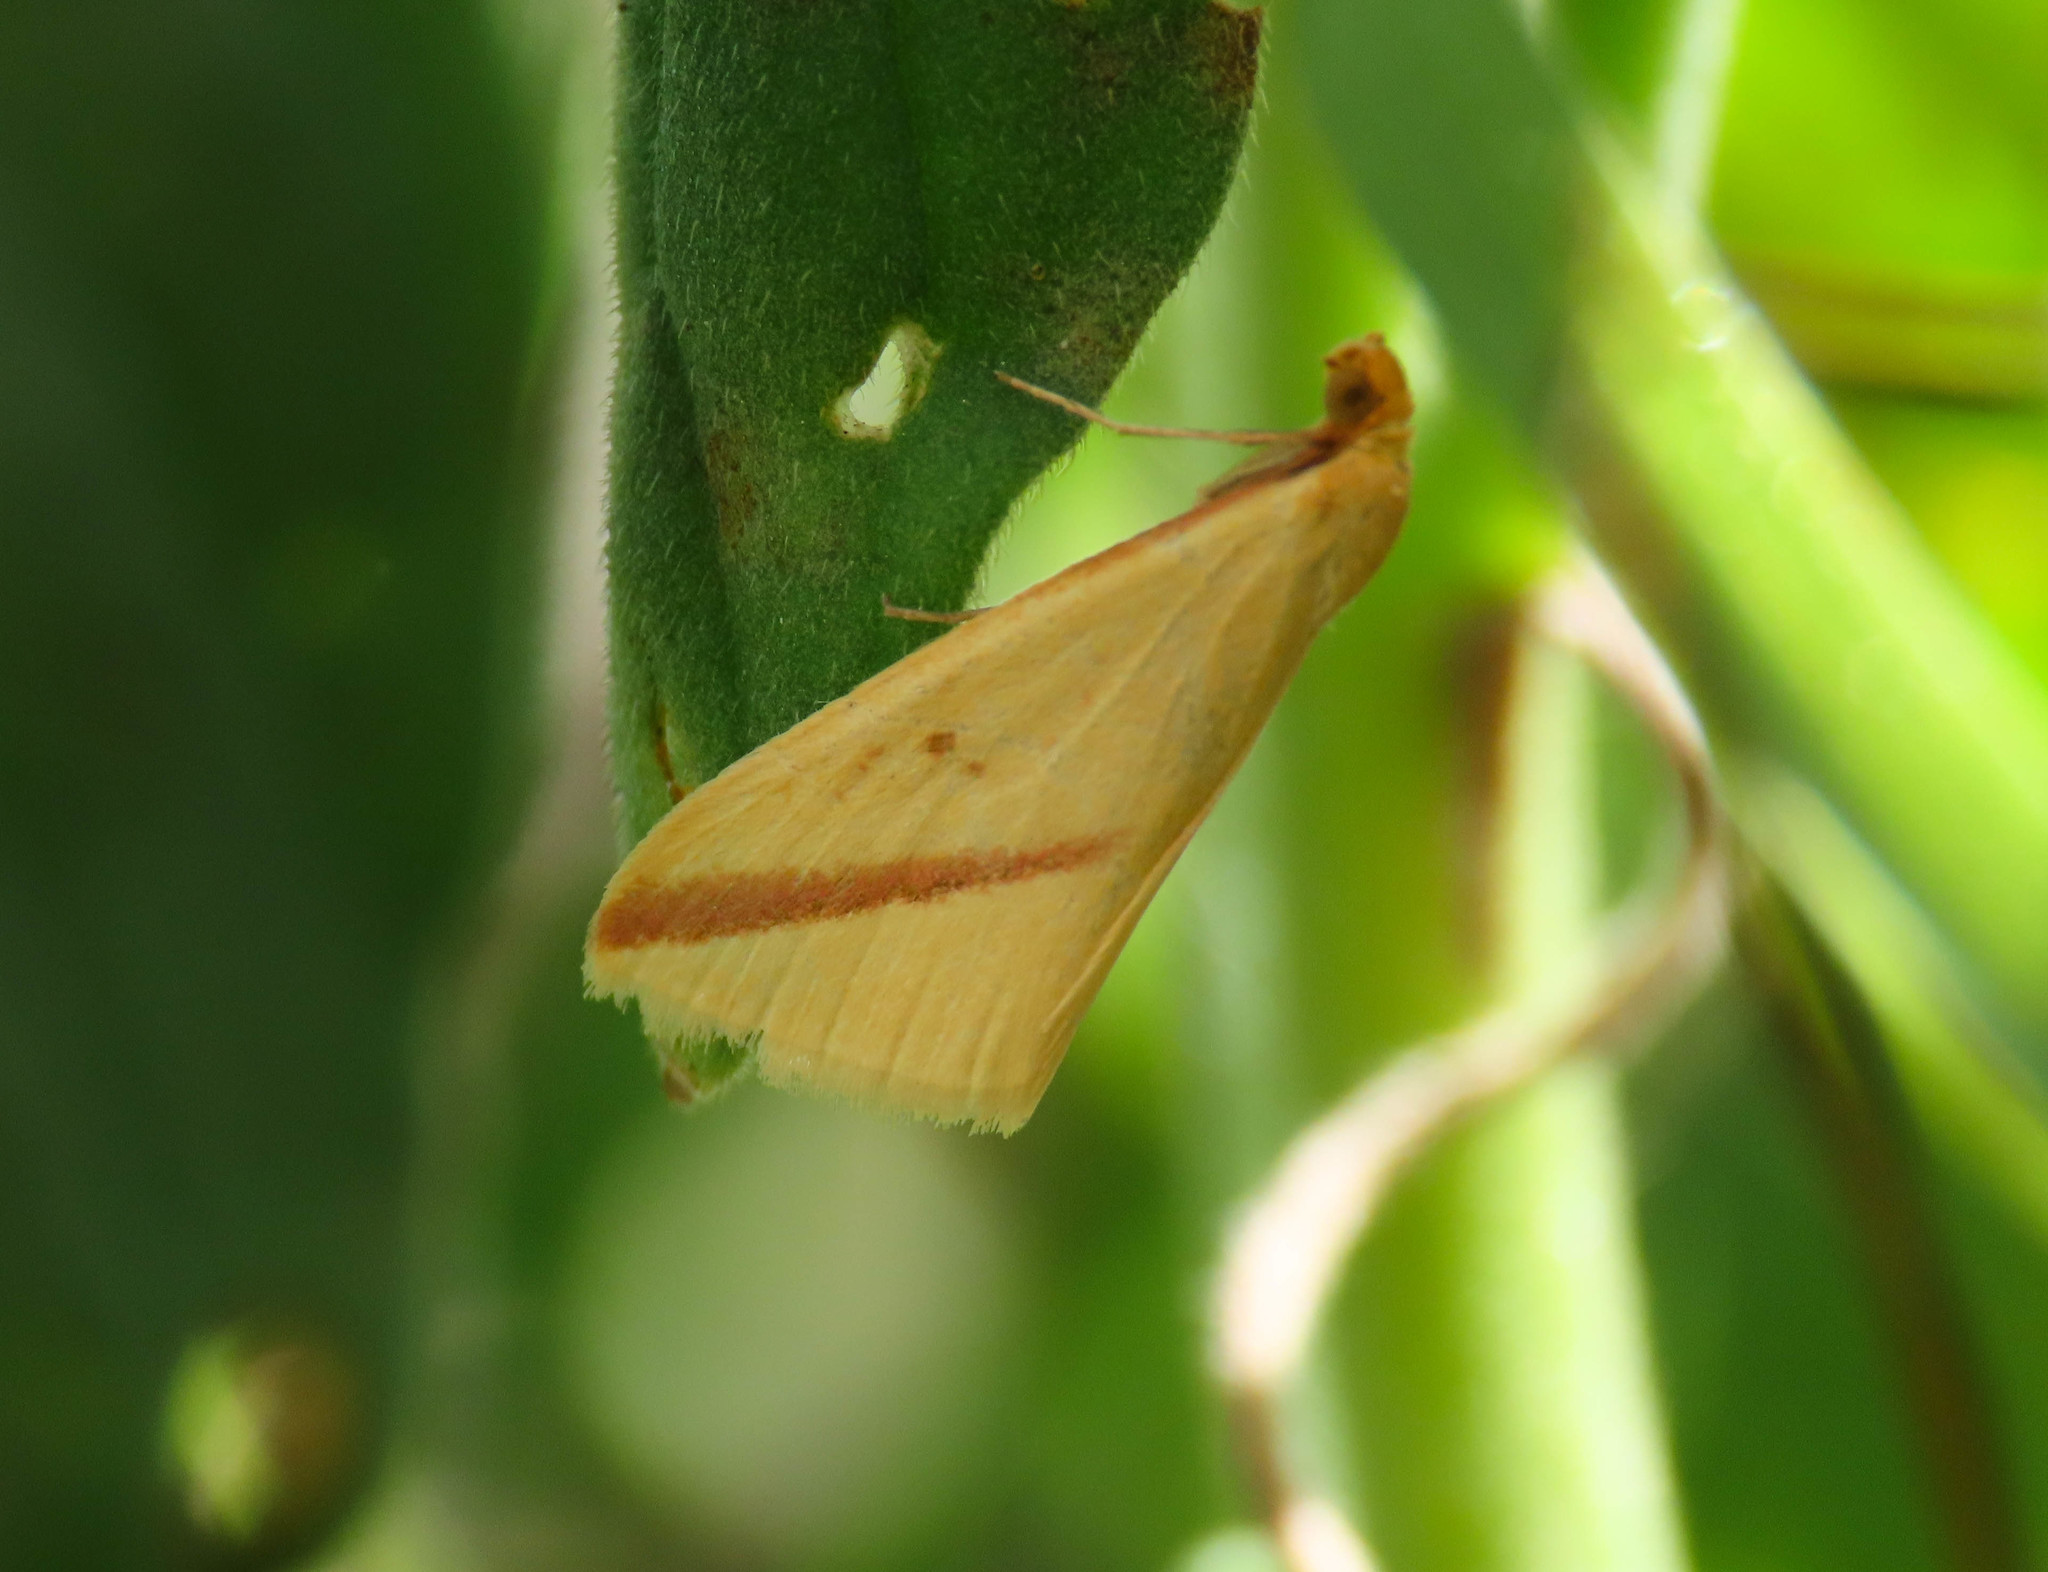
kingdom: Animalia
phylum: Arthropoda
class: Insecta
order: Lepidoptera
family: Geometridae
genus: Rhodometra
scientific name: Rhodometra sacraria
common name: Vestal
